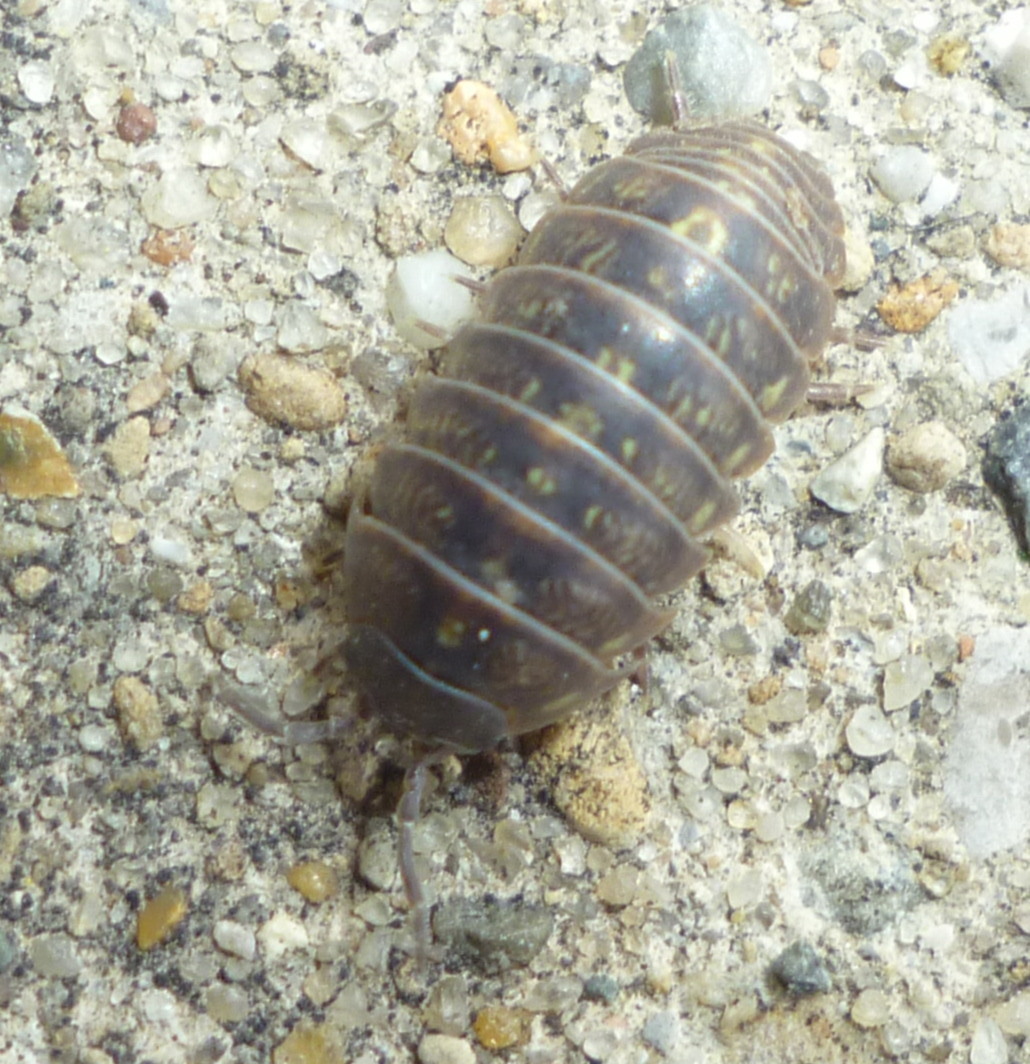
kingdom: Animalia
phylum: Arthropoda
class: Malacostraca
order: Isopoda
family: Armadillidiidae
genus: Armadillidium
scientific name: Armadillidium vulgare
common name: Common pill woodlouse
